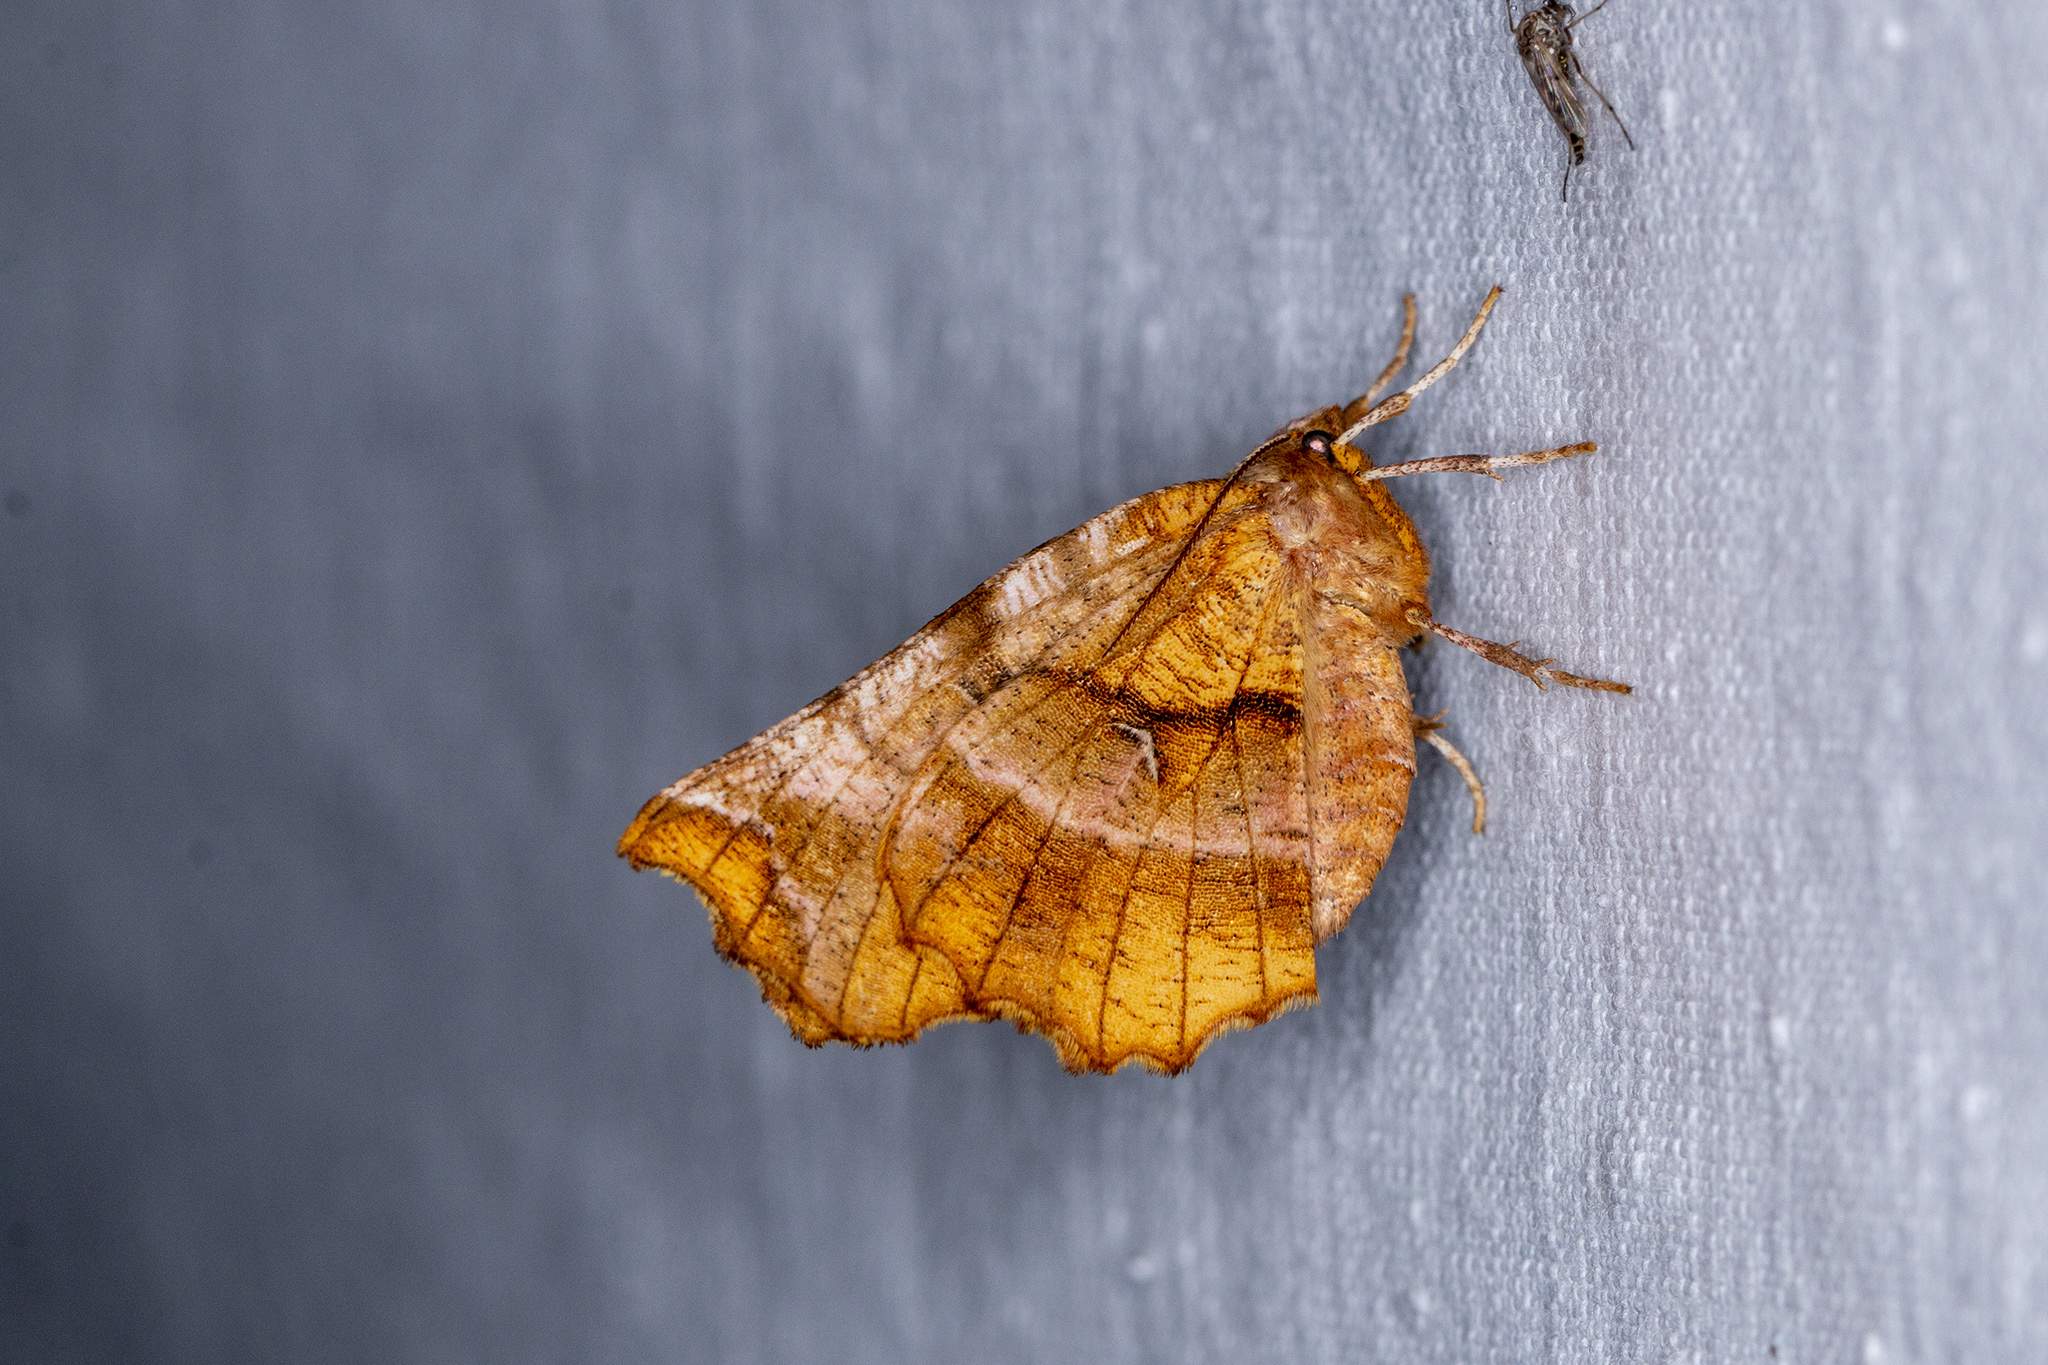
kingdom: Animalia
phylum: Arthropoda
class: Insecta
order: Lepidoptera
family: Geometridae
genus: Selenia
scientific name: Selenia dentaria
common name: Early thorn
